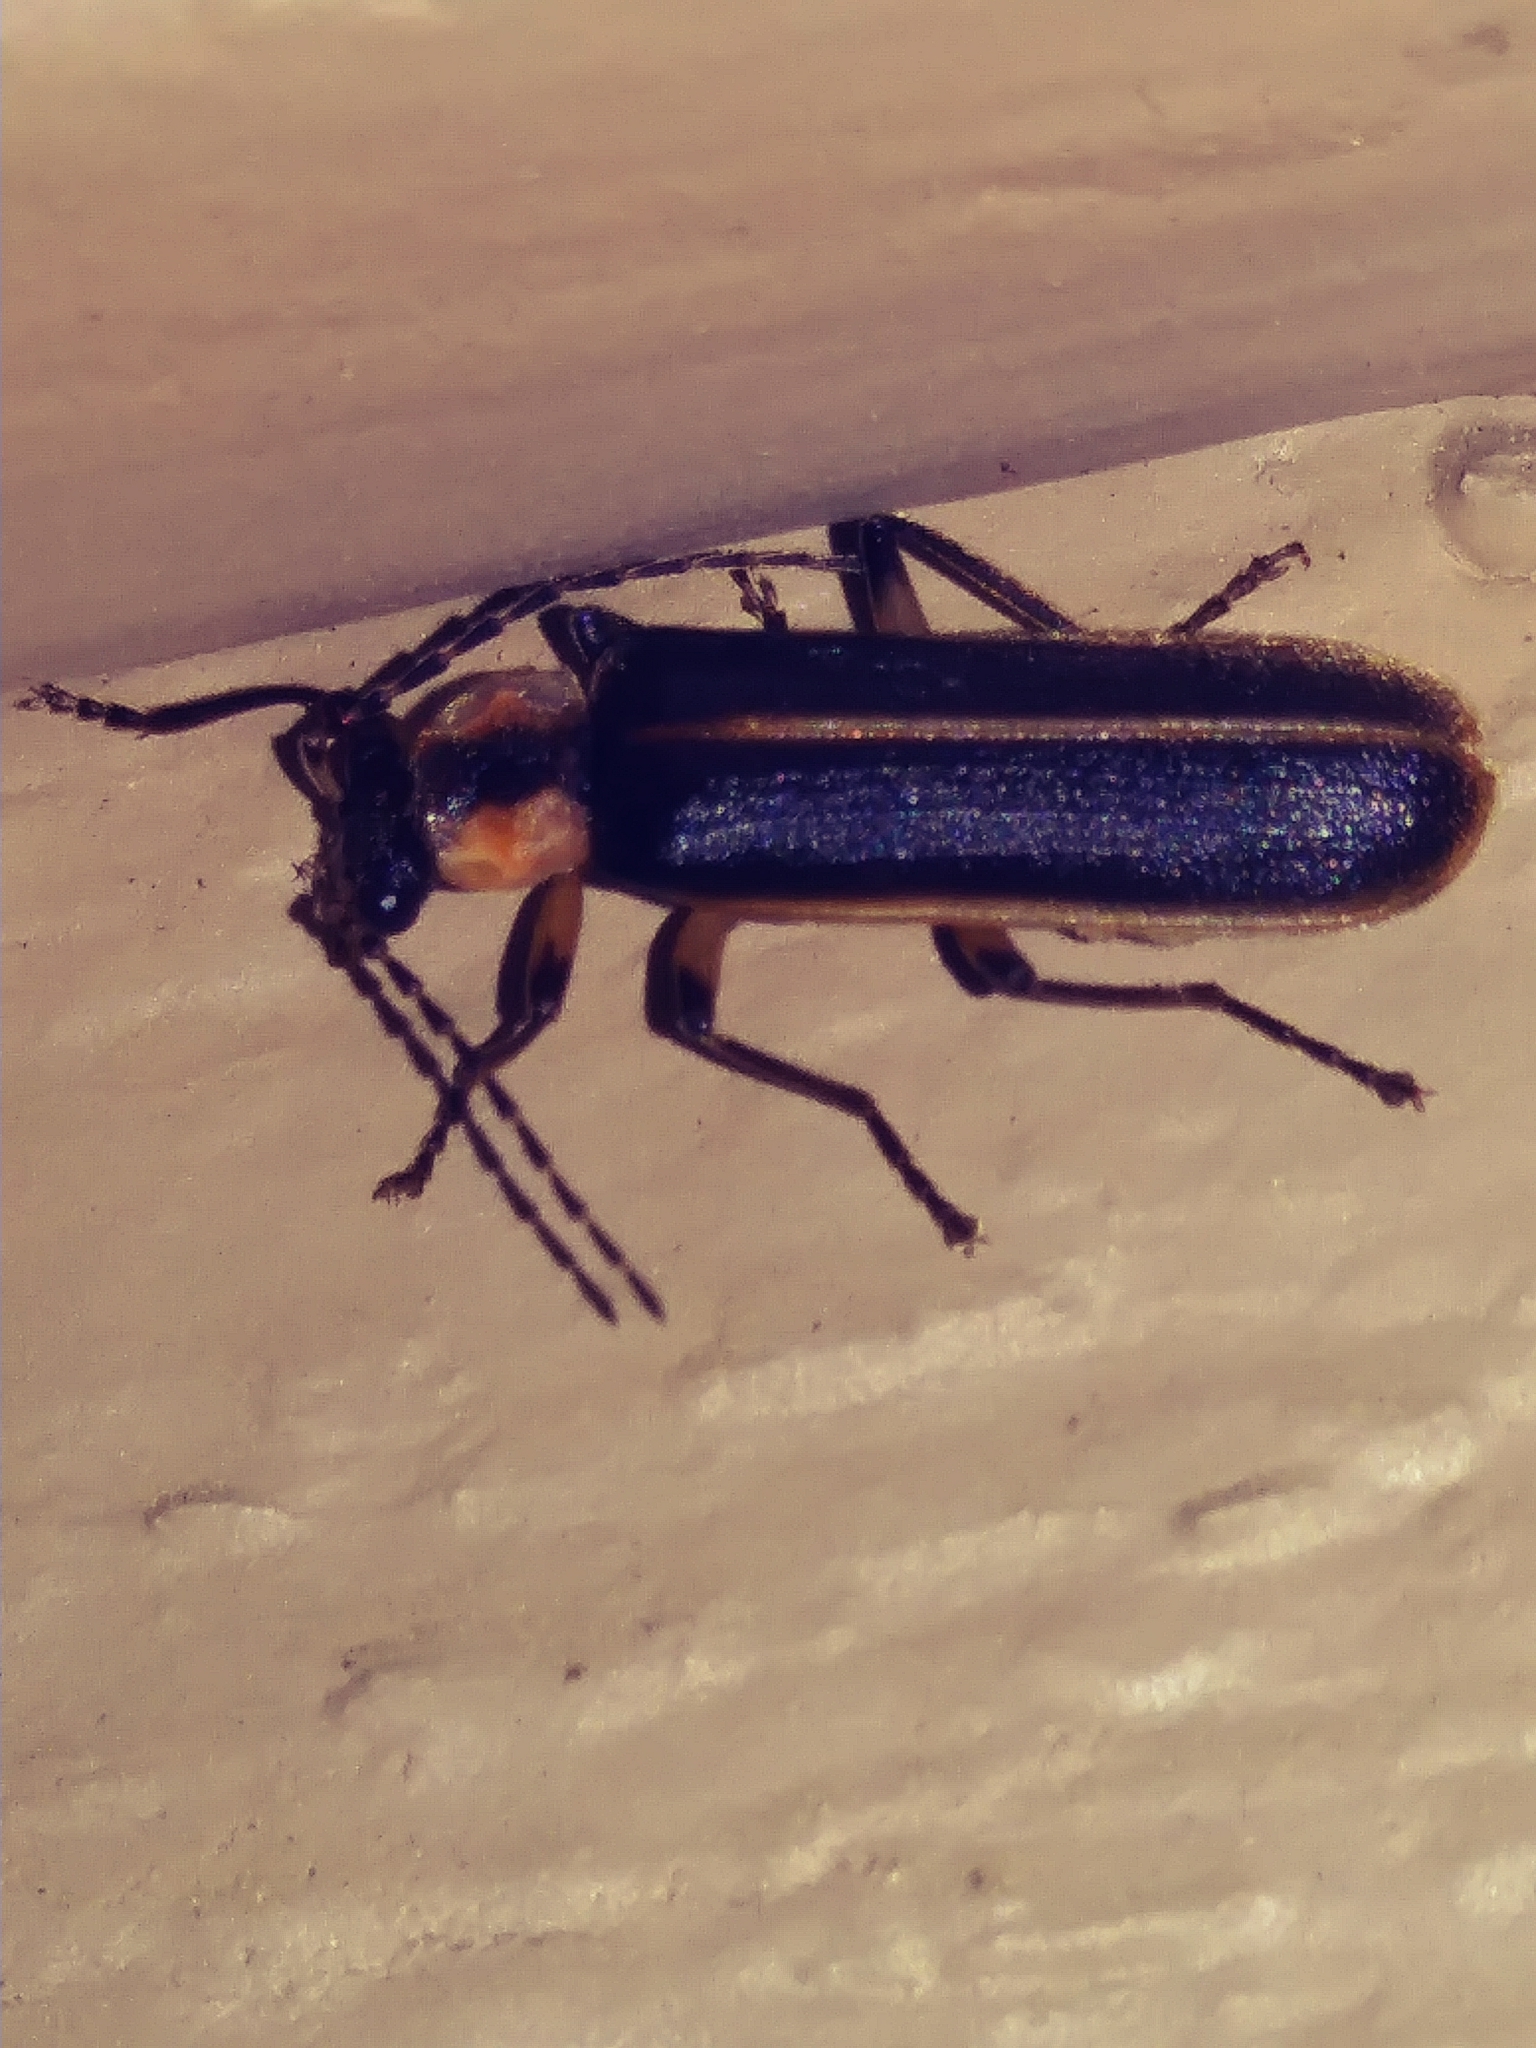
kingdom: Animalia
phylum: Arthropoda
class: Insecta
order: Coleoptera
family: Cantharidae
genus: Podabrus
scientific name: Podabrus basilaris
